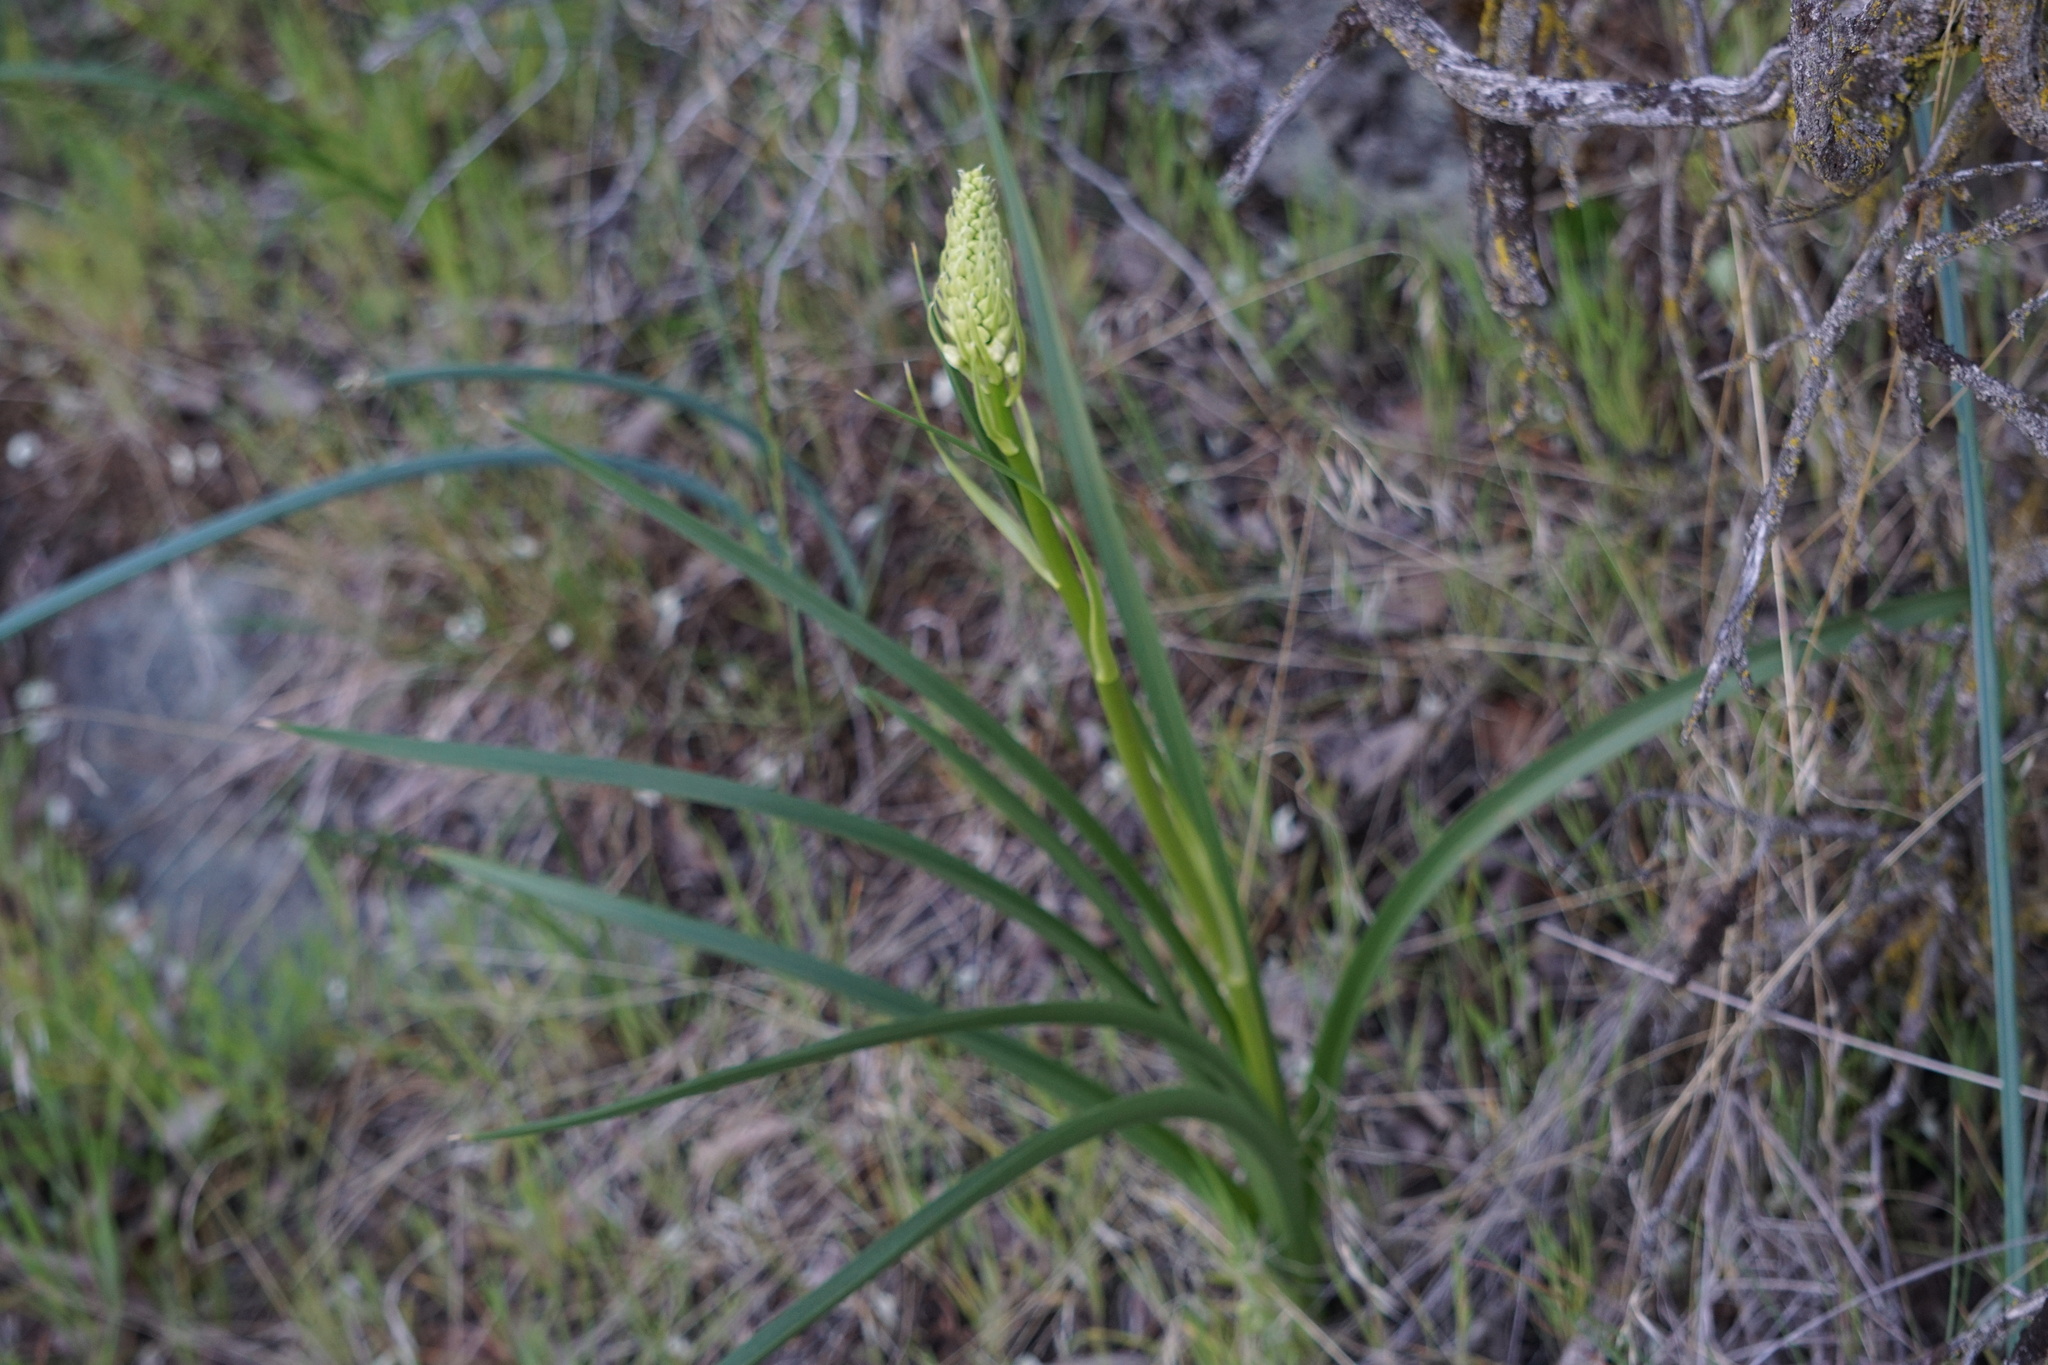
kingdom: Plantae
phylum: Tracheophyta
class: Liliopsida
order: Liliales
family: Melanthiaceae
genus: Toxicoscordion
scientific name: Toxicoscordion venenosum
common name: Meadow death camas
